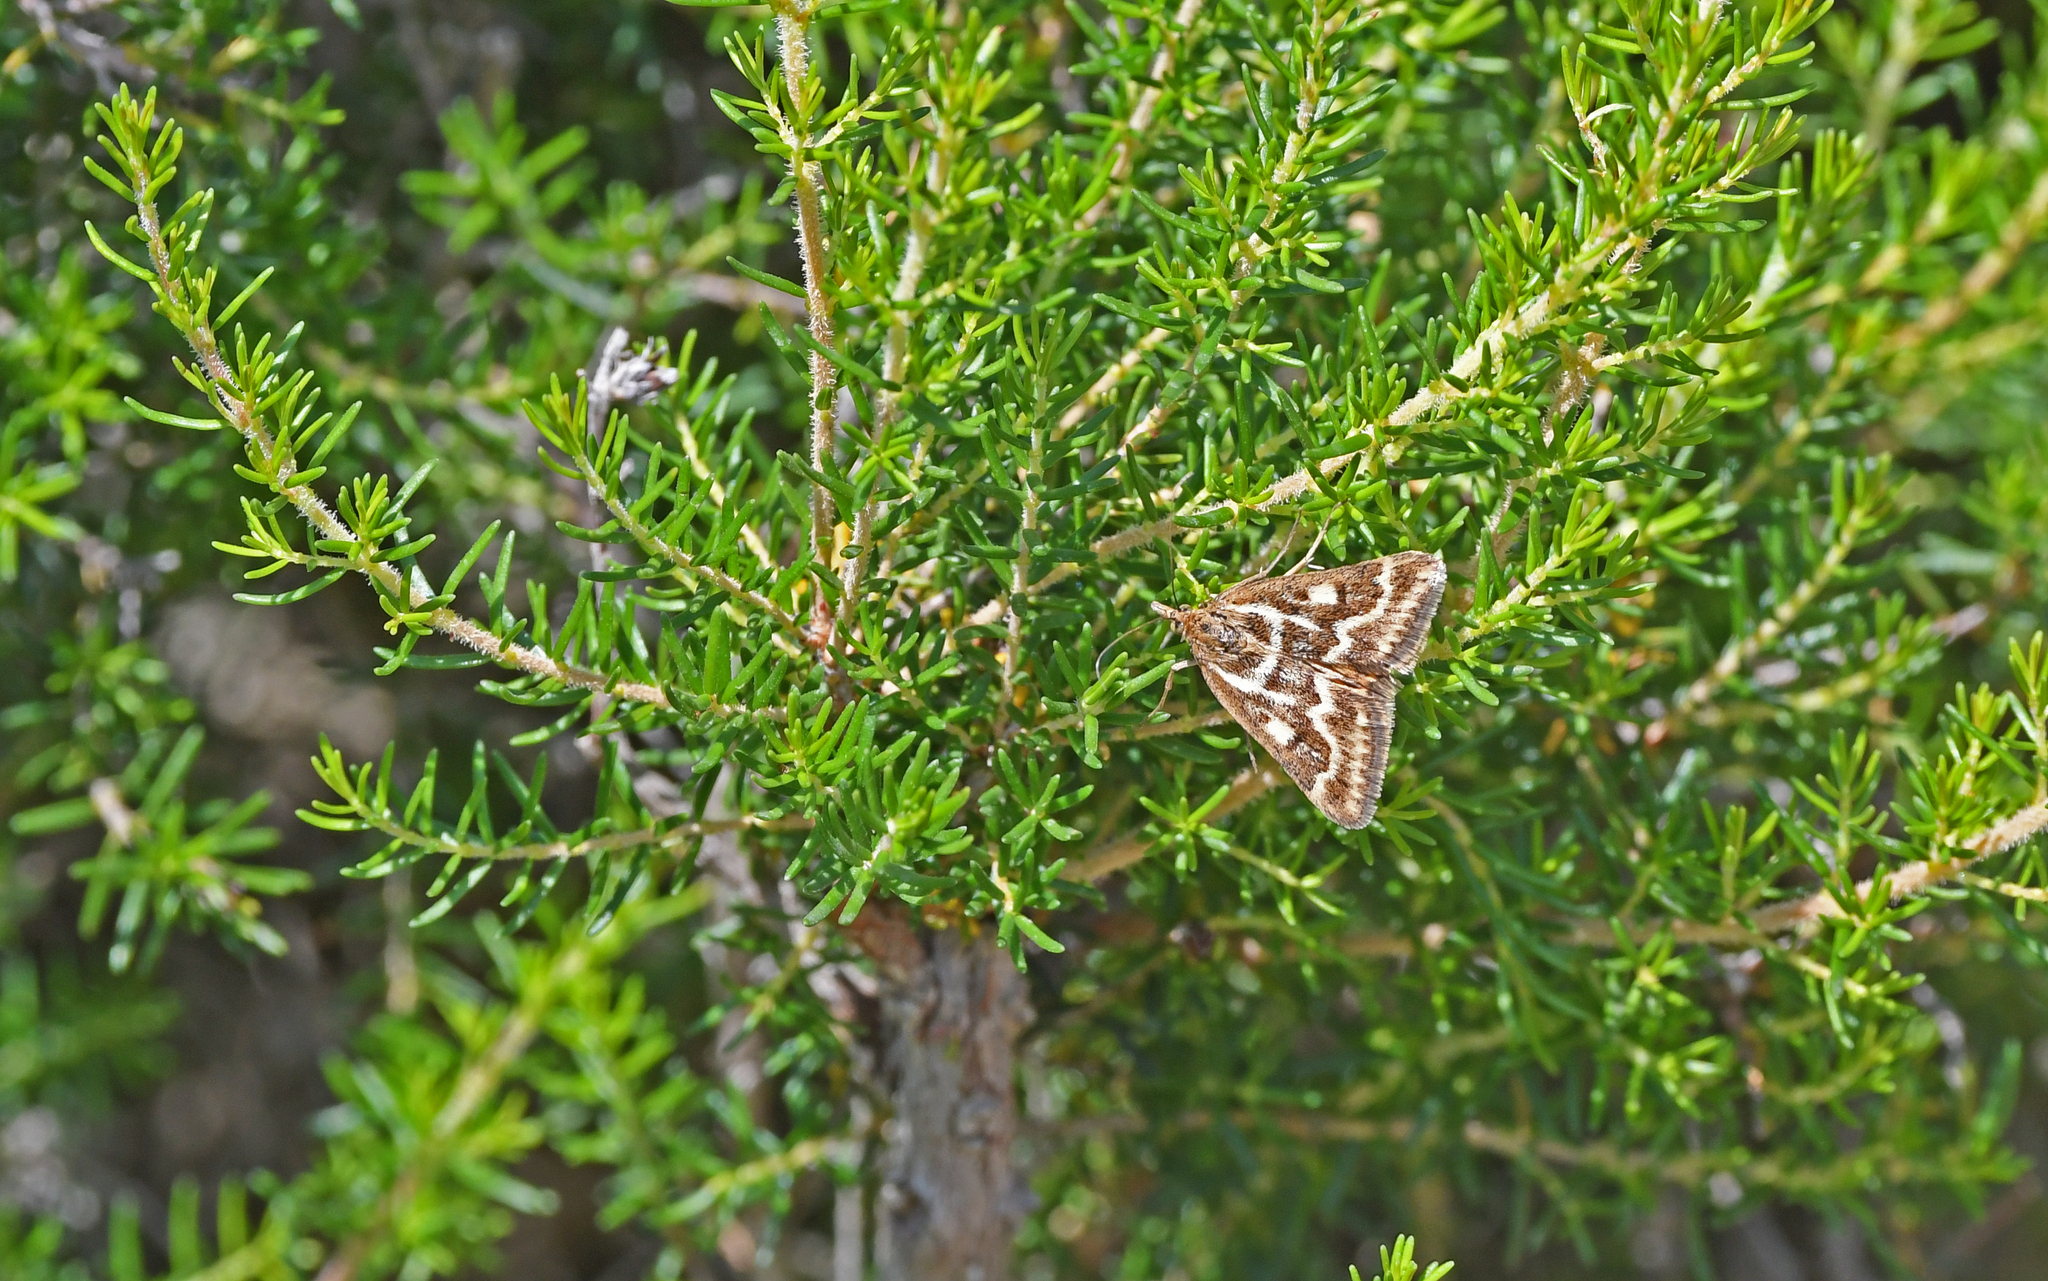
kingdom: Animalia
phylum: Arthropoda
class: Insecta
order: Lepidoptera
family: Crambidae
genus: Pyrausta
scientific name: Pyrausta limbopunctalis
